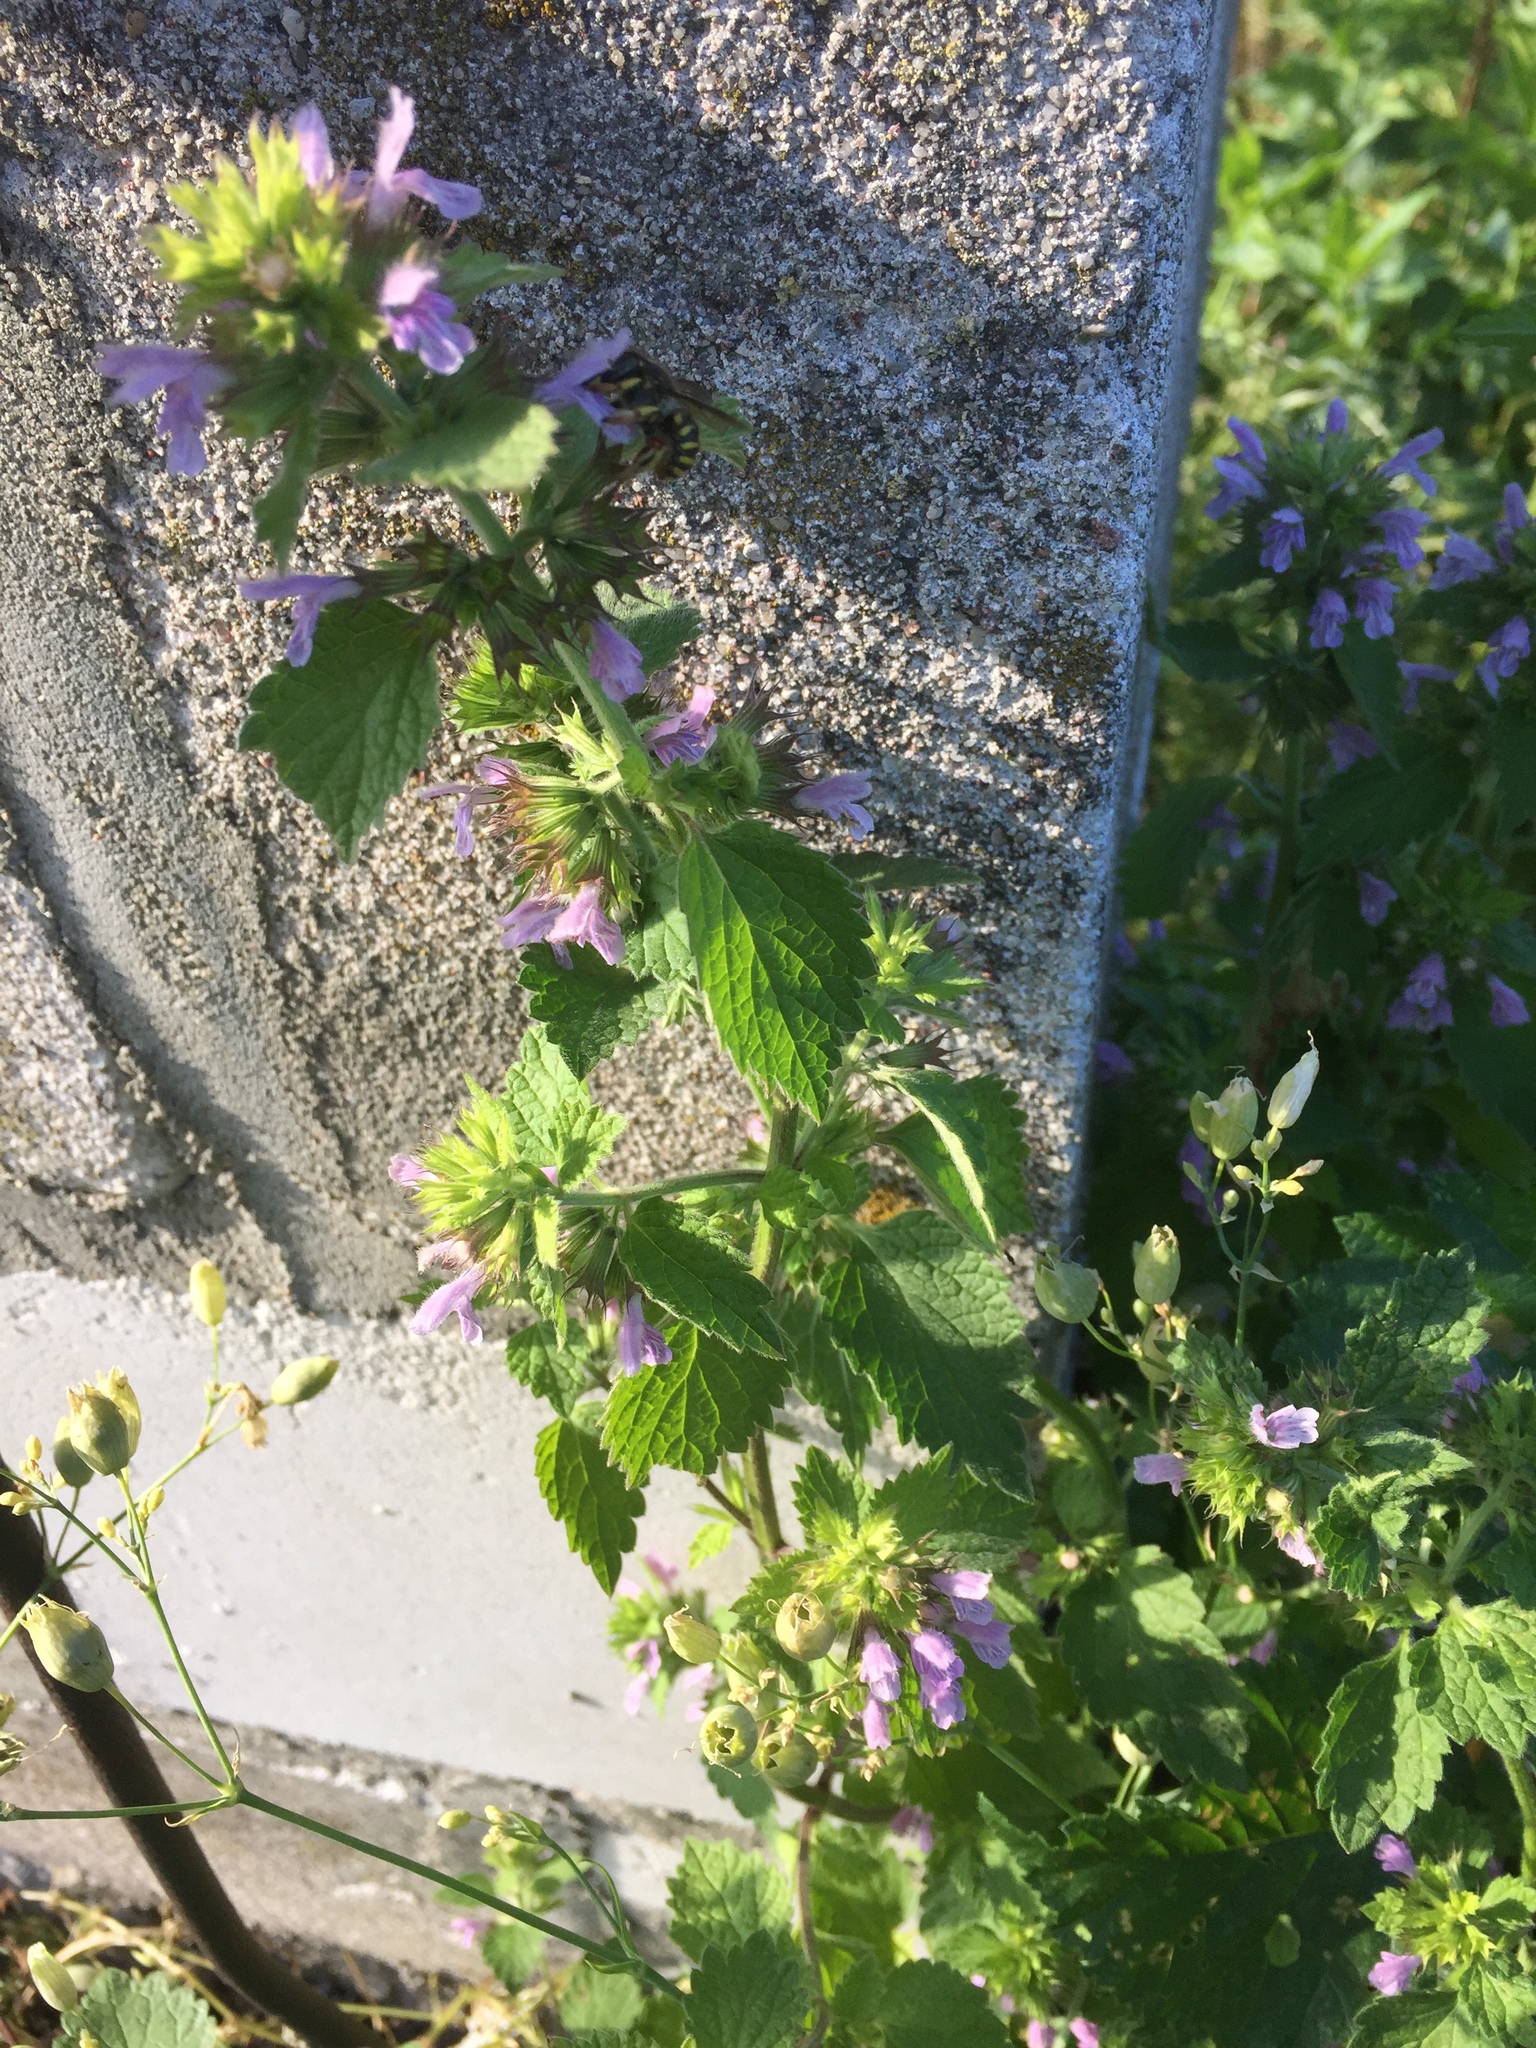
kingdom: Plantae
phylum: Tracheophyta
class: Magnoliopsida
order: Lamiales
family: Lamiaceae
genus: Ballota
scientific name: Ballota nigra
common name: Black horehound
